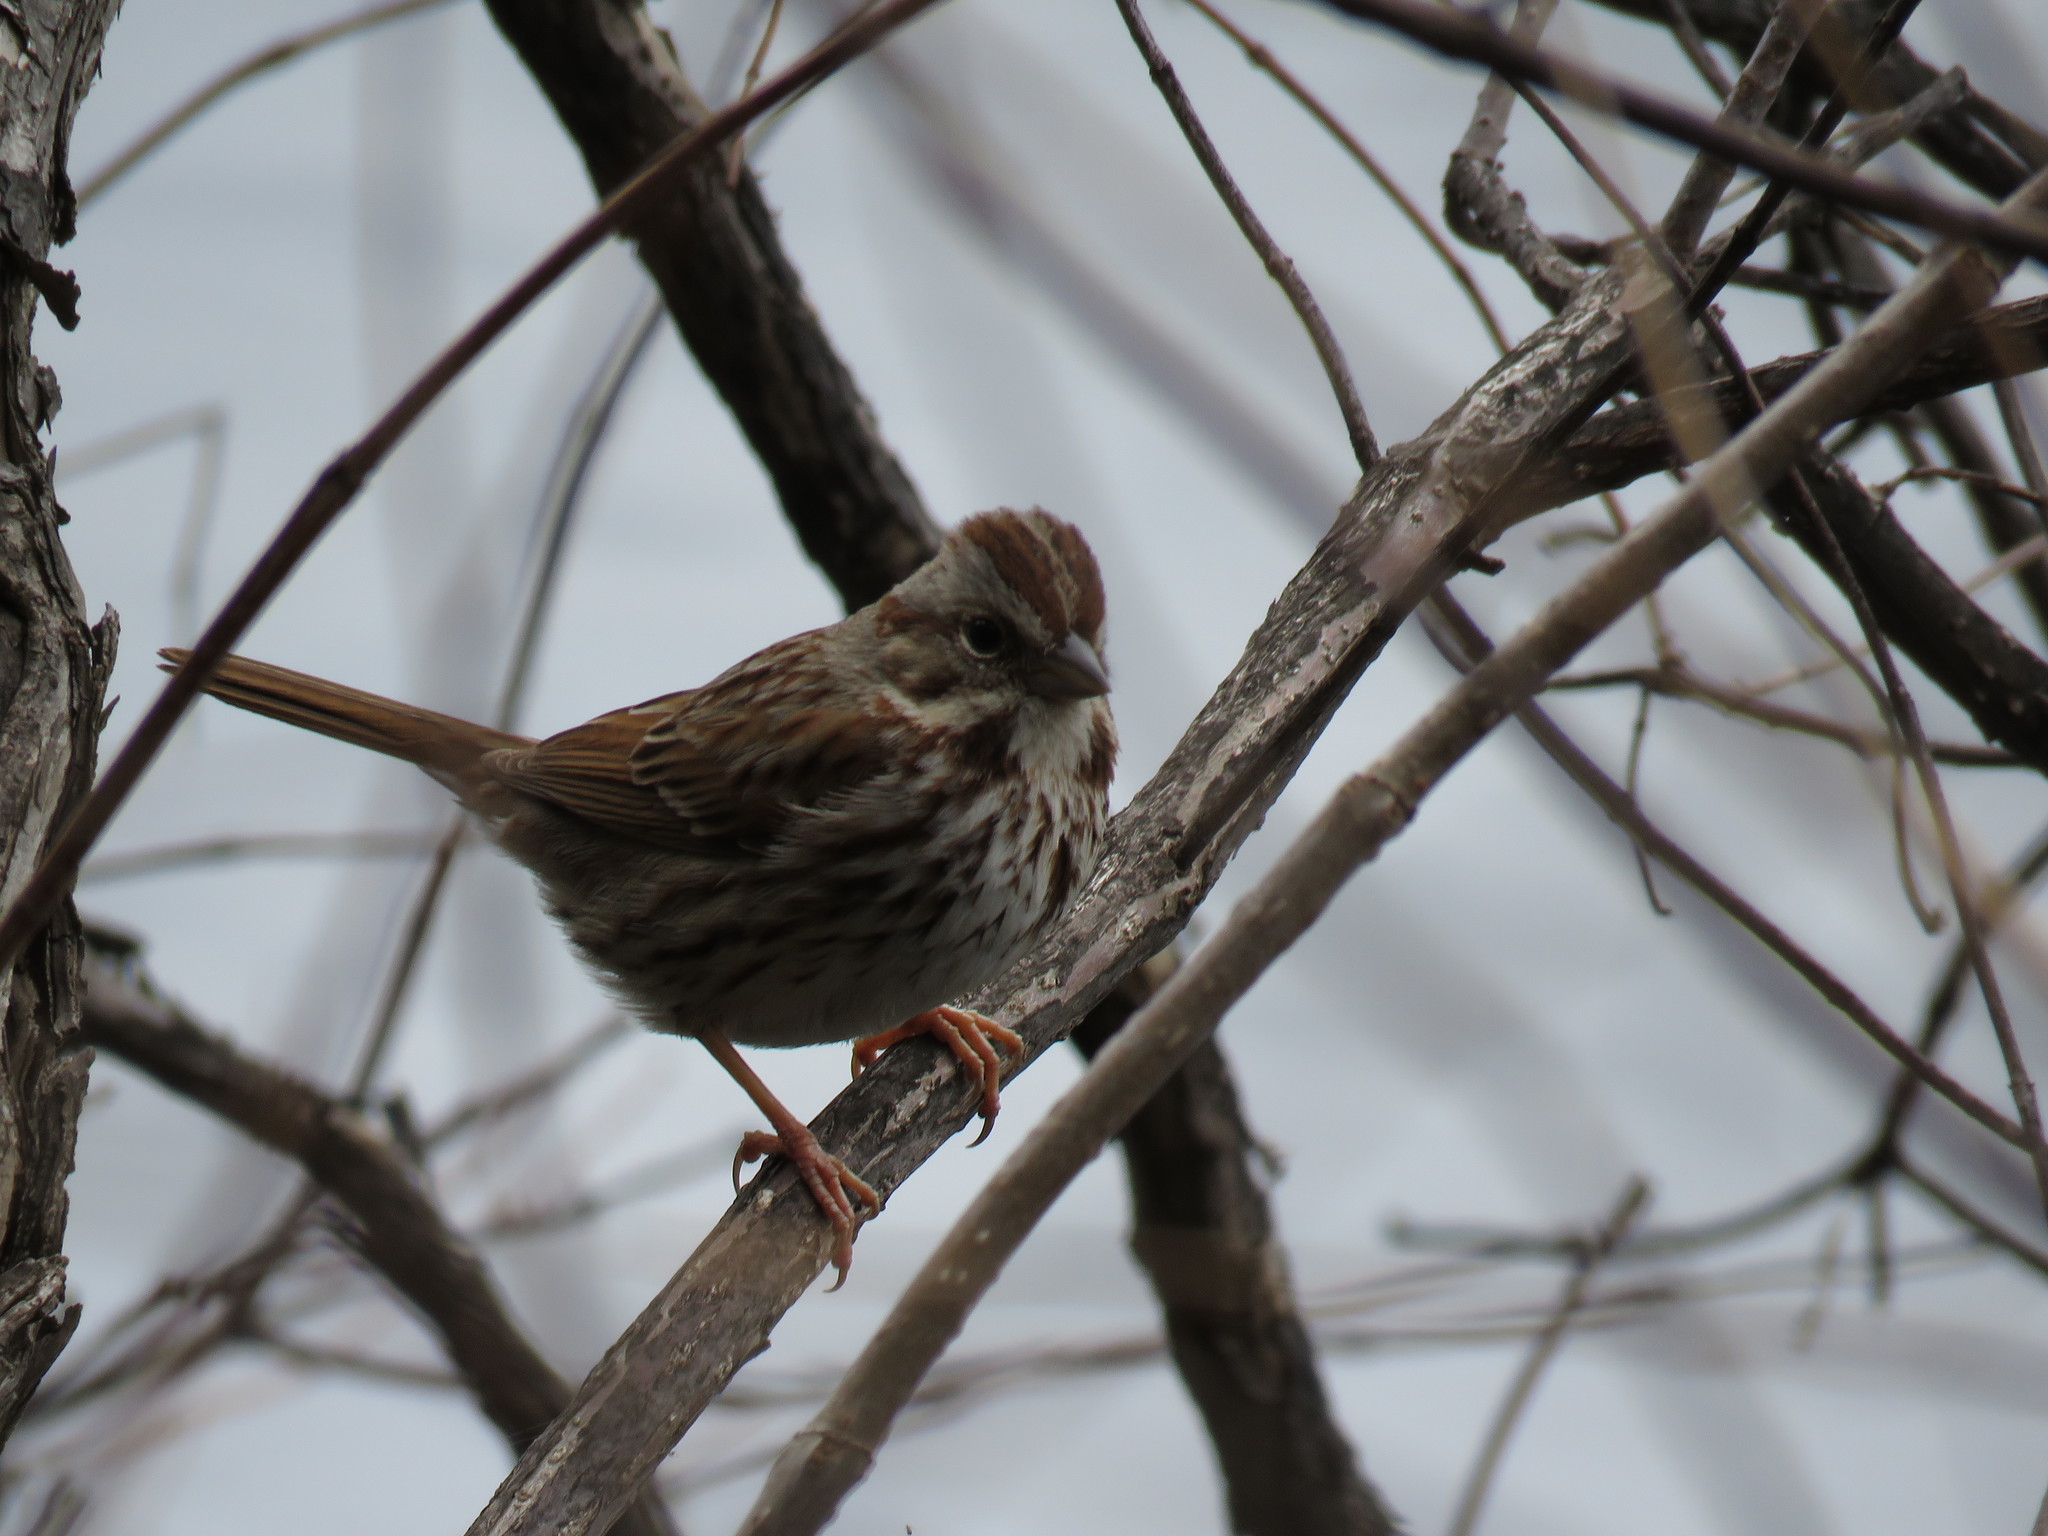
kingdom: Animalia
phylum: Chordata
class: Aves
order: Passeriformes
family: Passerellidae
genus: Melospiza
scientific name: Melospiza melodia
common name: Song sparrow
